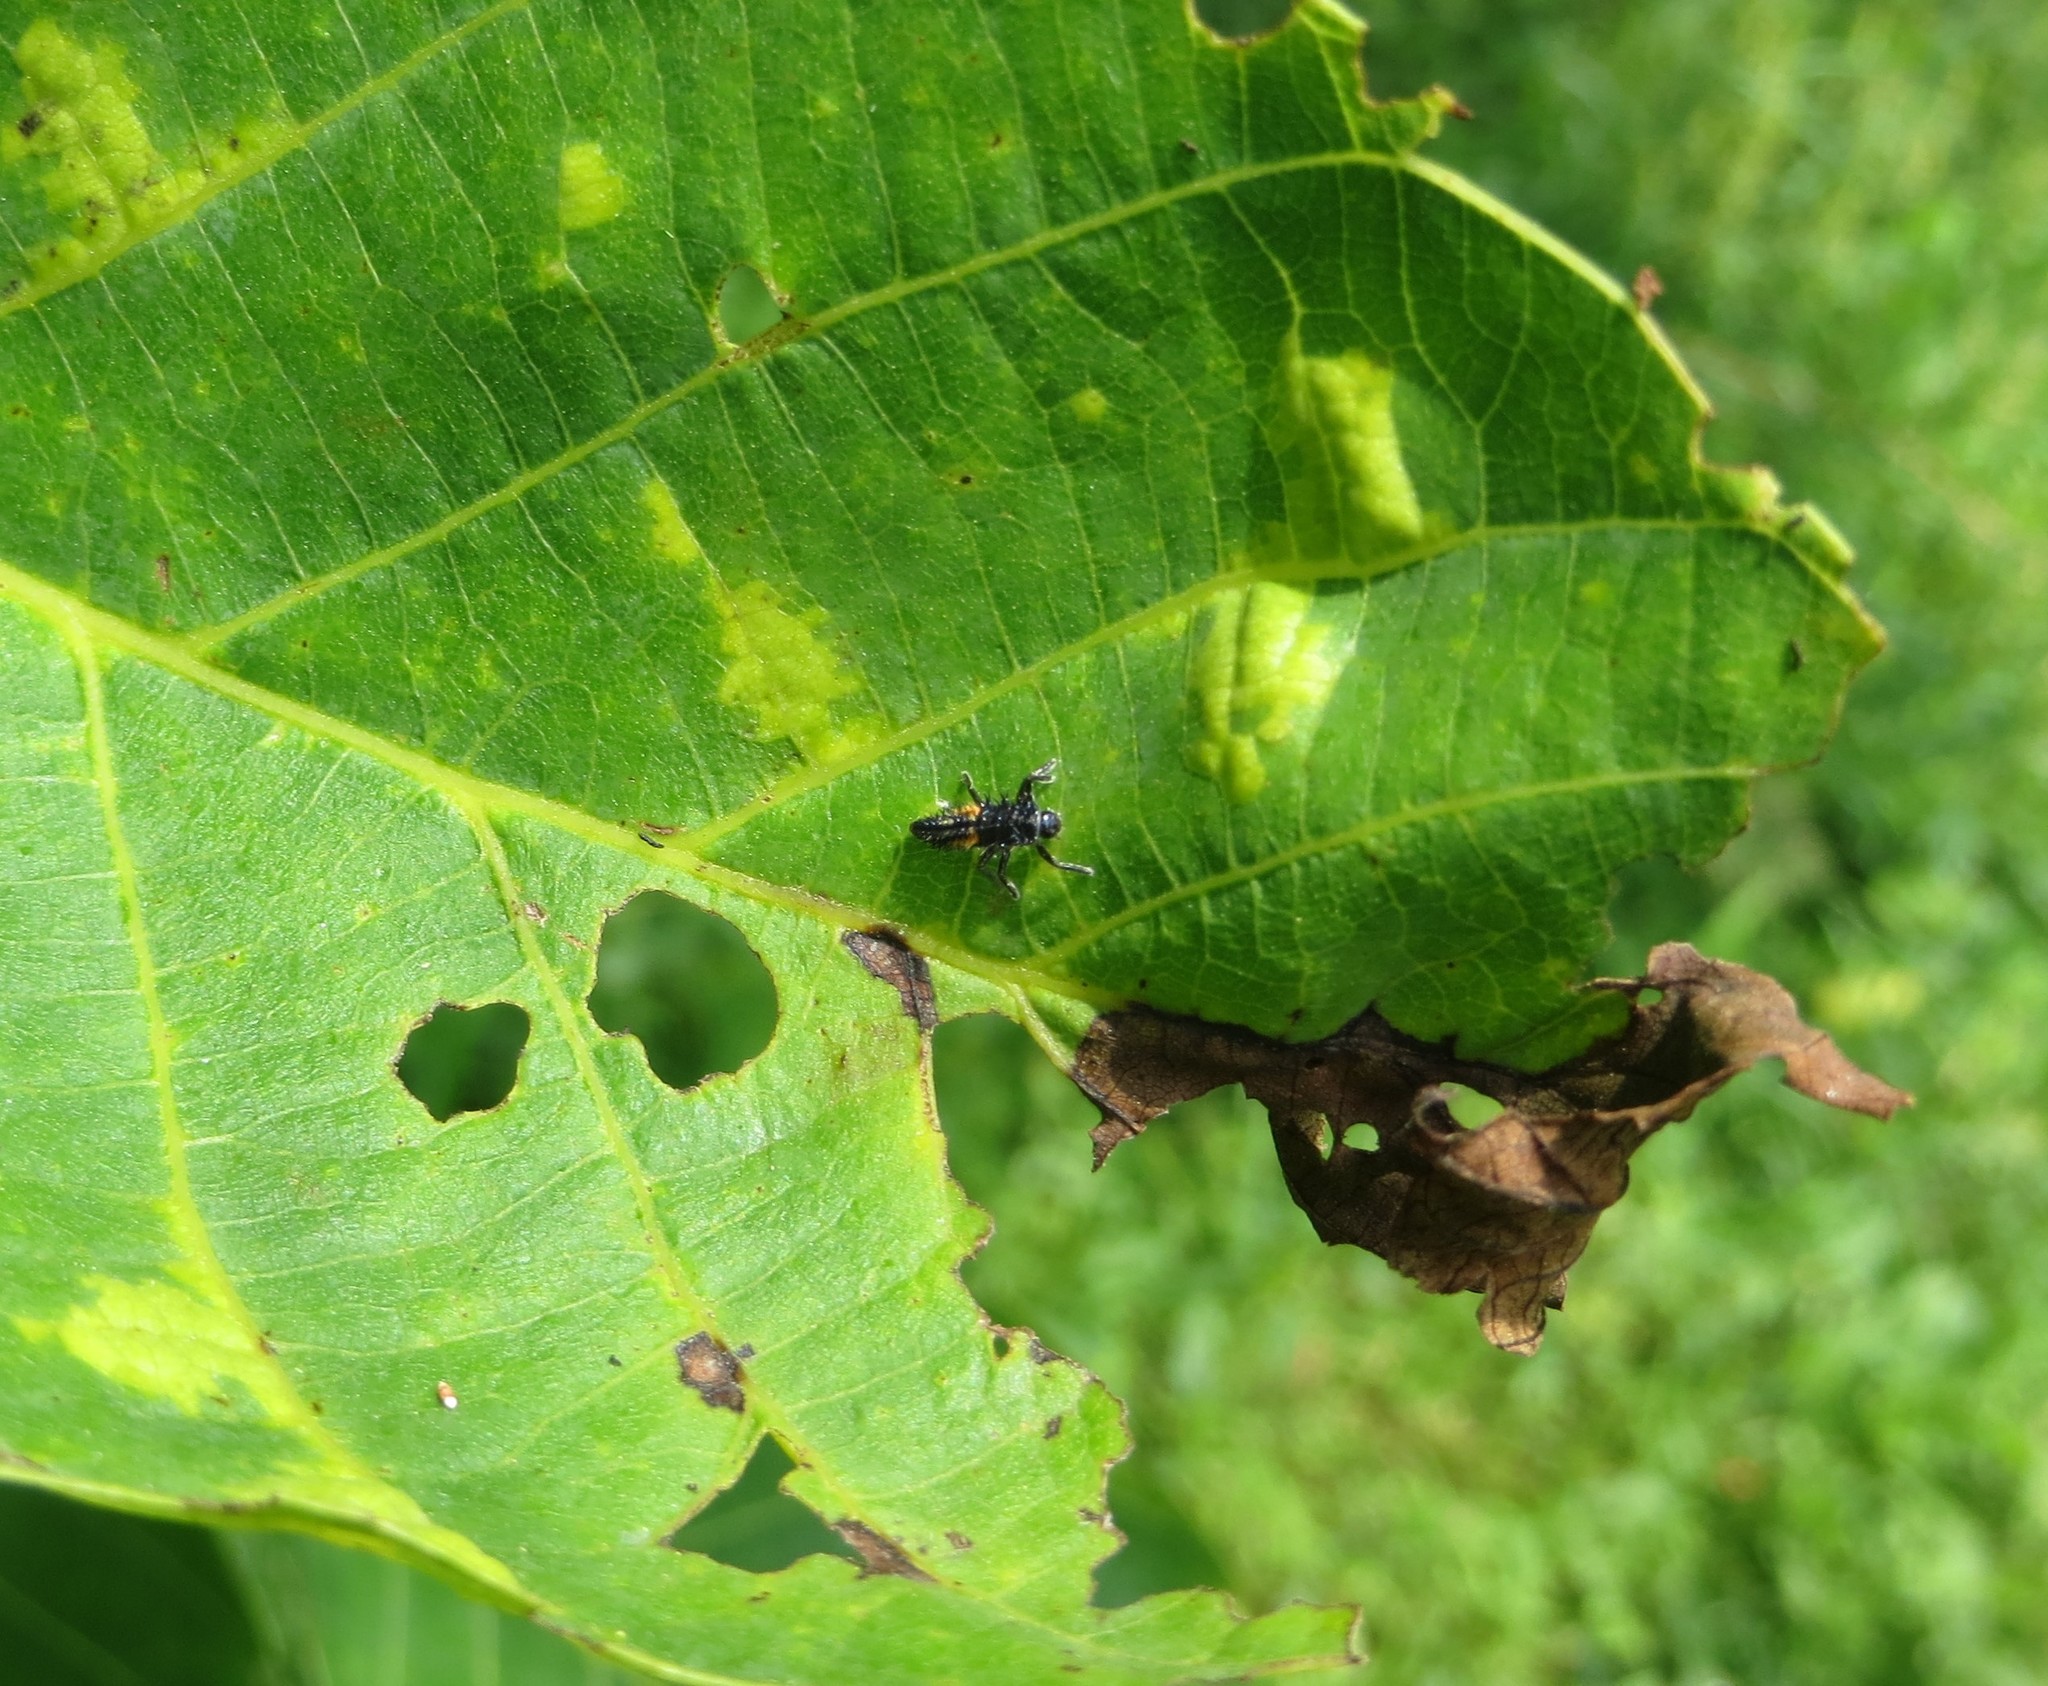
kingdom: Animalia
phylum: Arthropoda
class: Insecta
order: Coleoptera
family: Coccinellidae
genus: Harmonia
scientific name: Harmonia axyridis
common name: Harlequin ladybird
